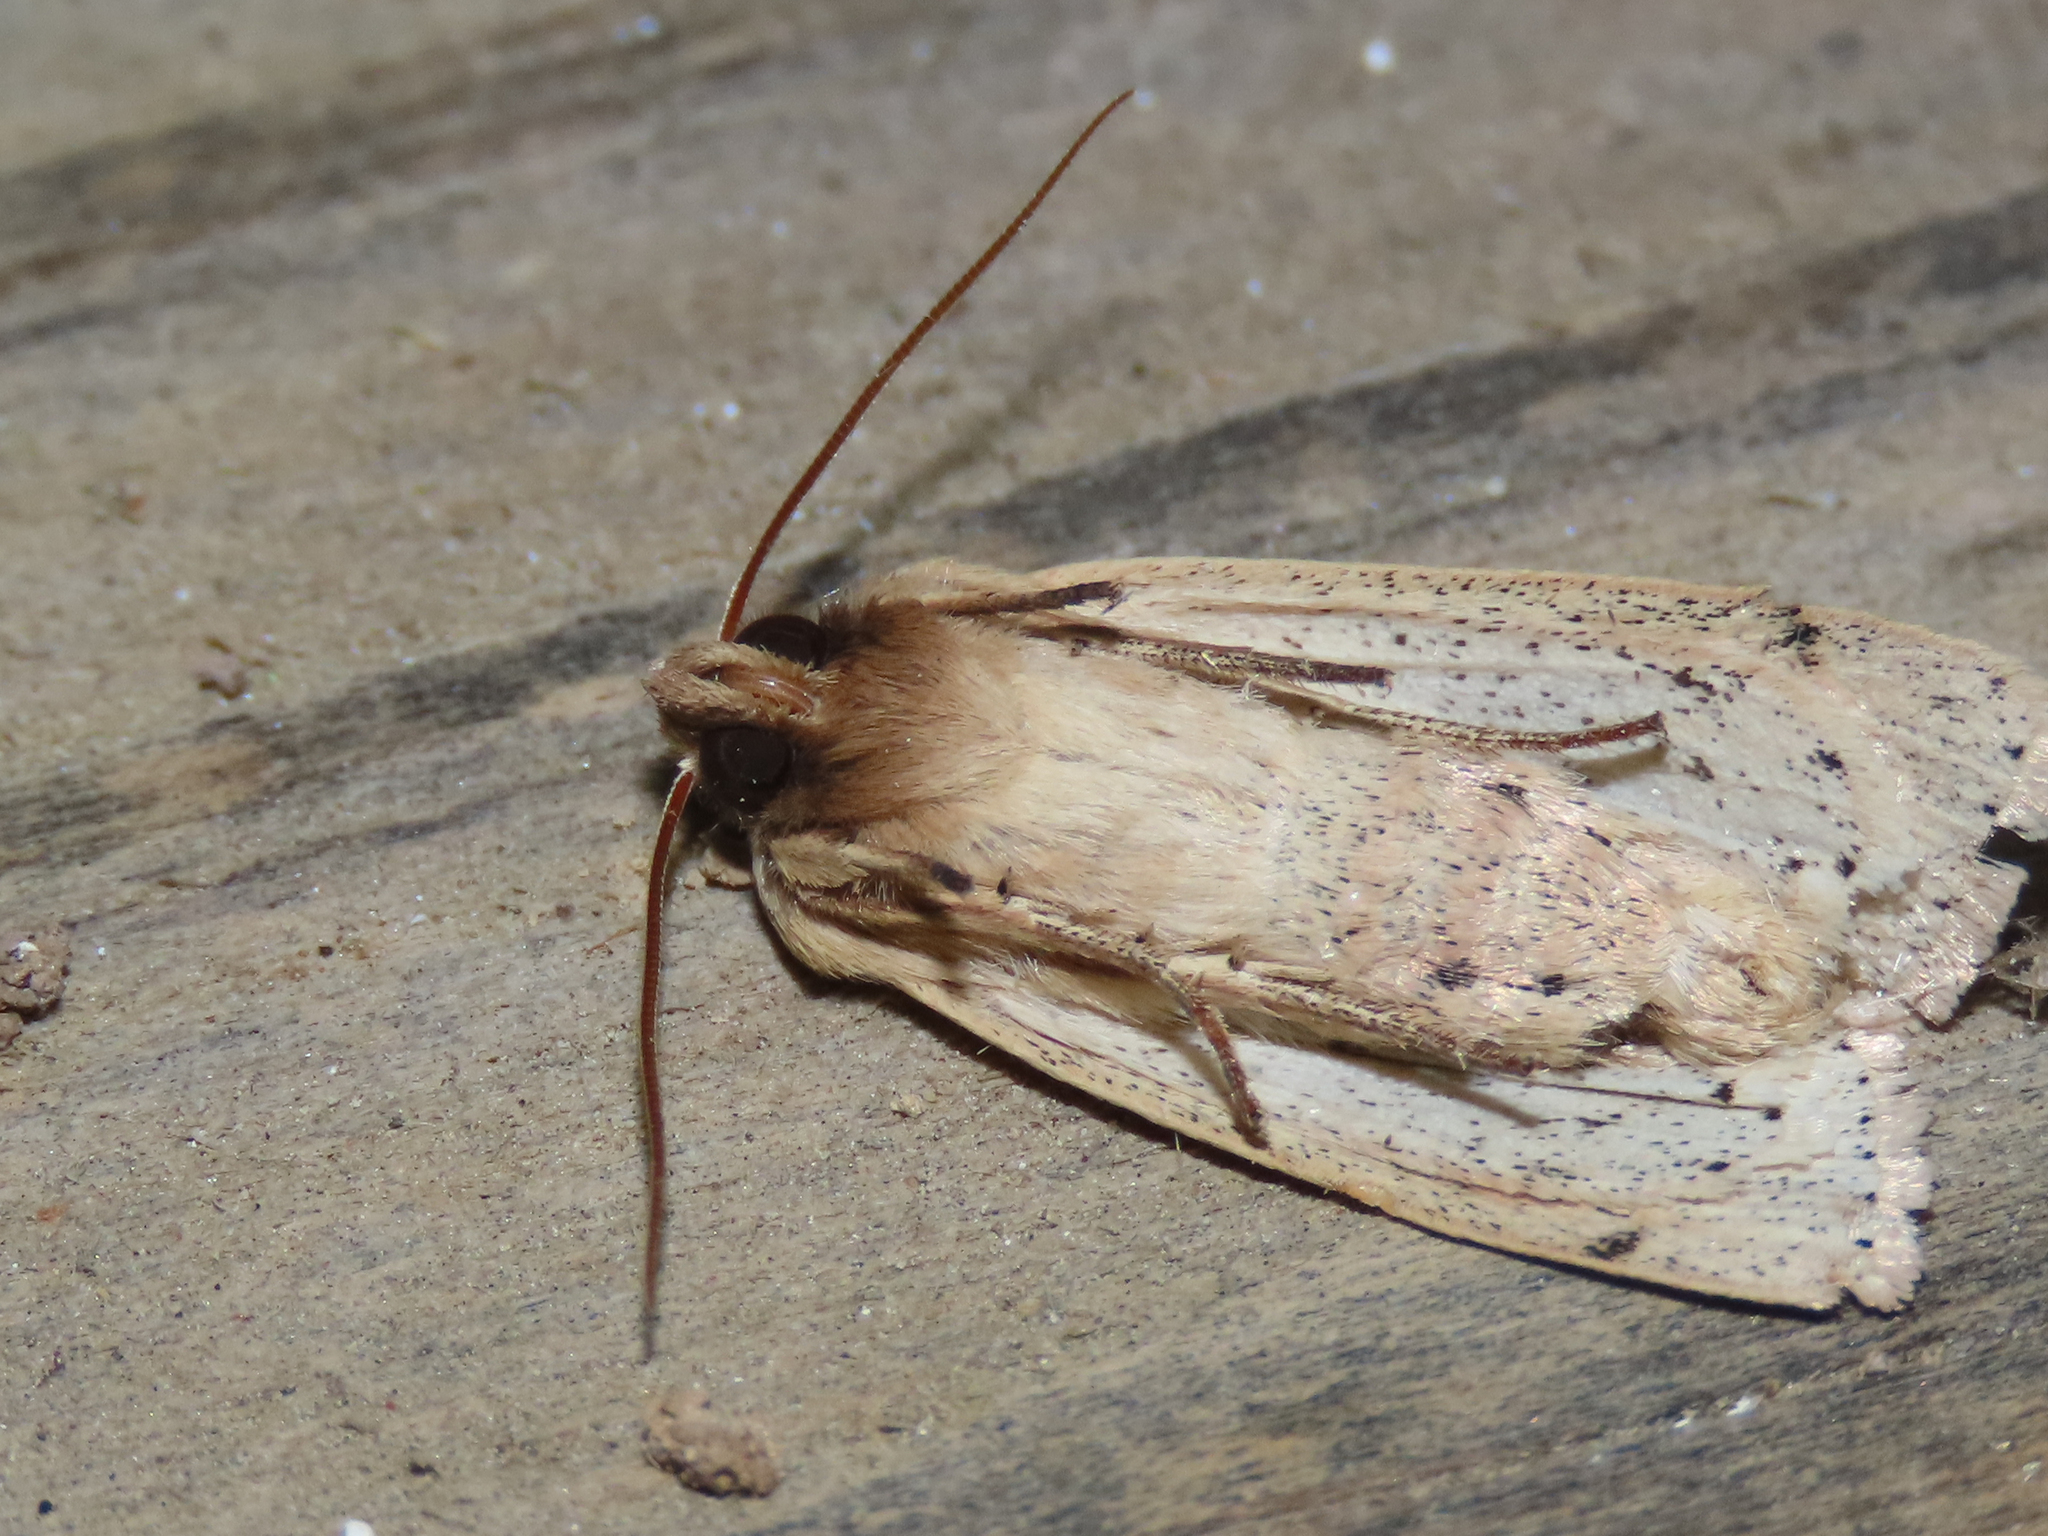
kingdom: Animalia
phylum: Arthropoda
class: Insecta
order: Lepidoptera
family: Noctuidae
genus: Leucania
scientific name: Leucania adjuta
